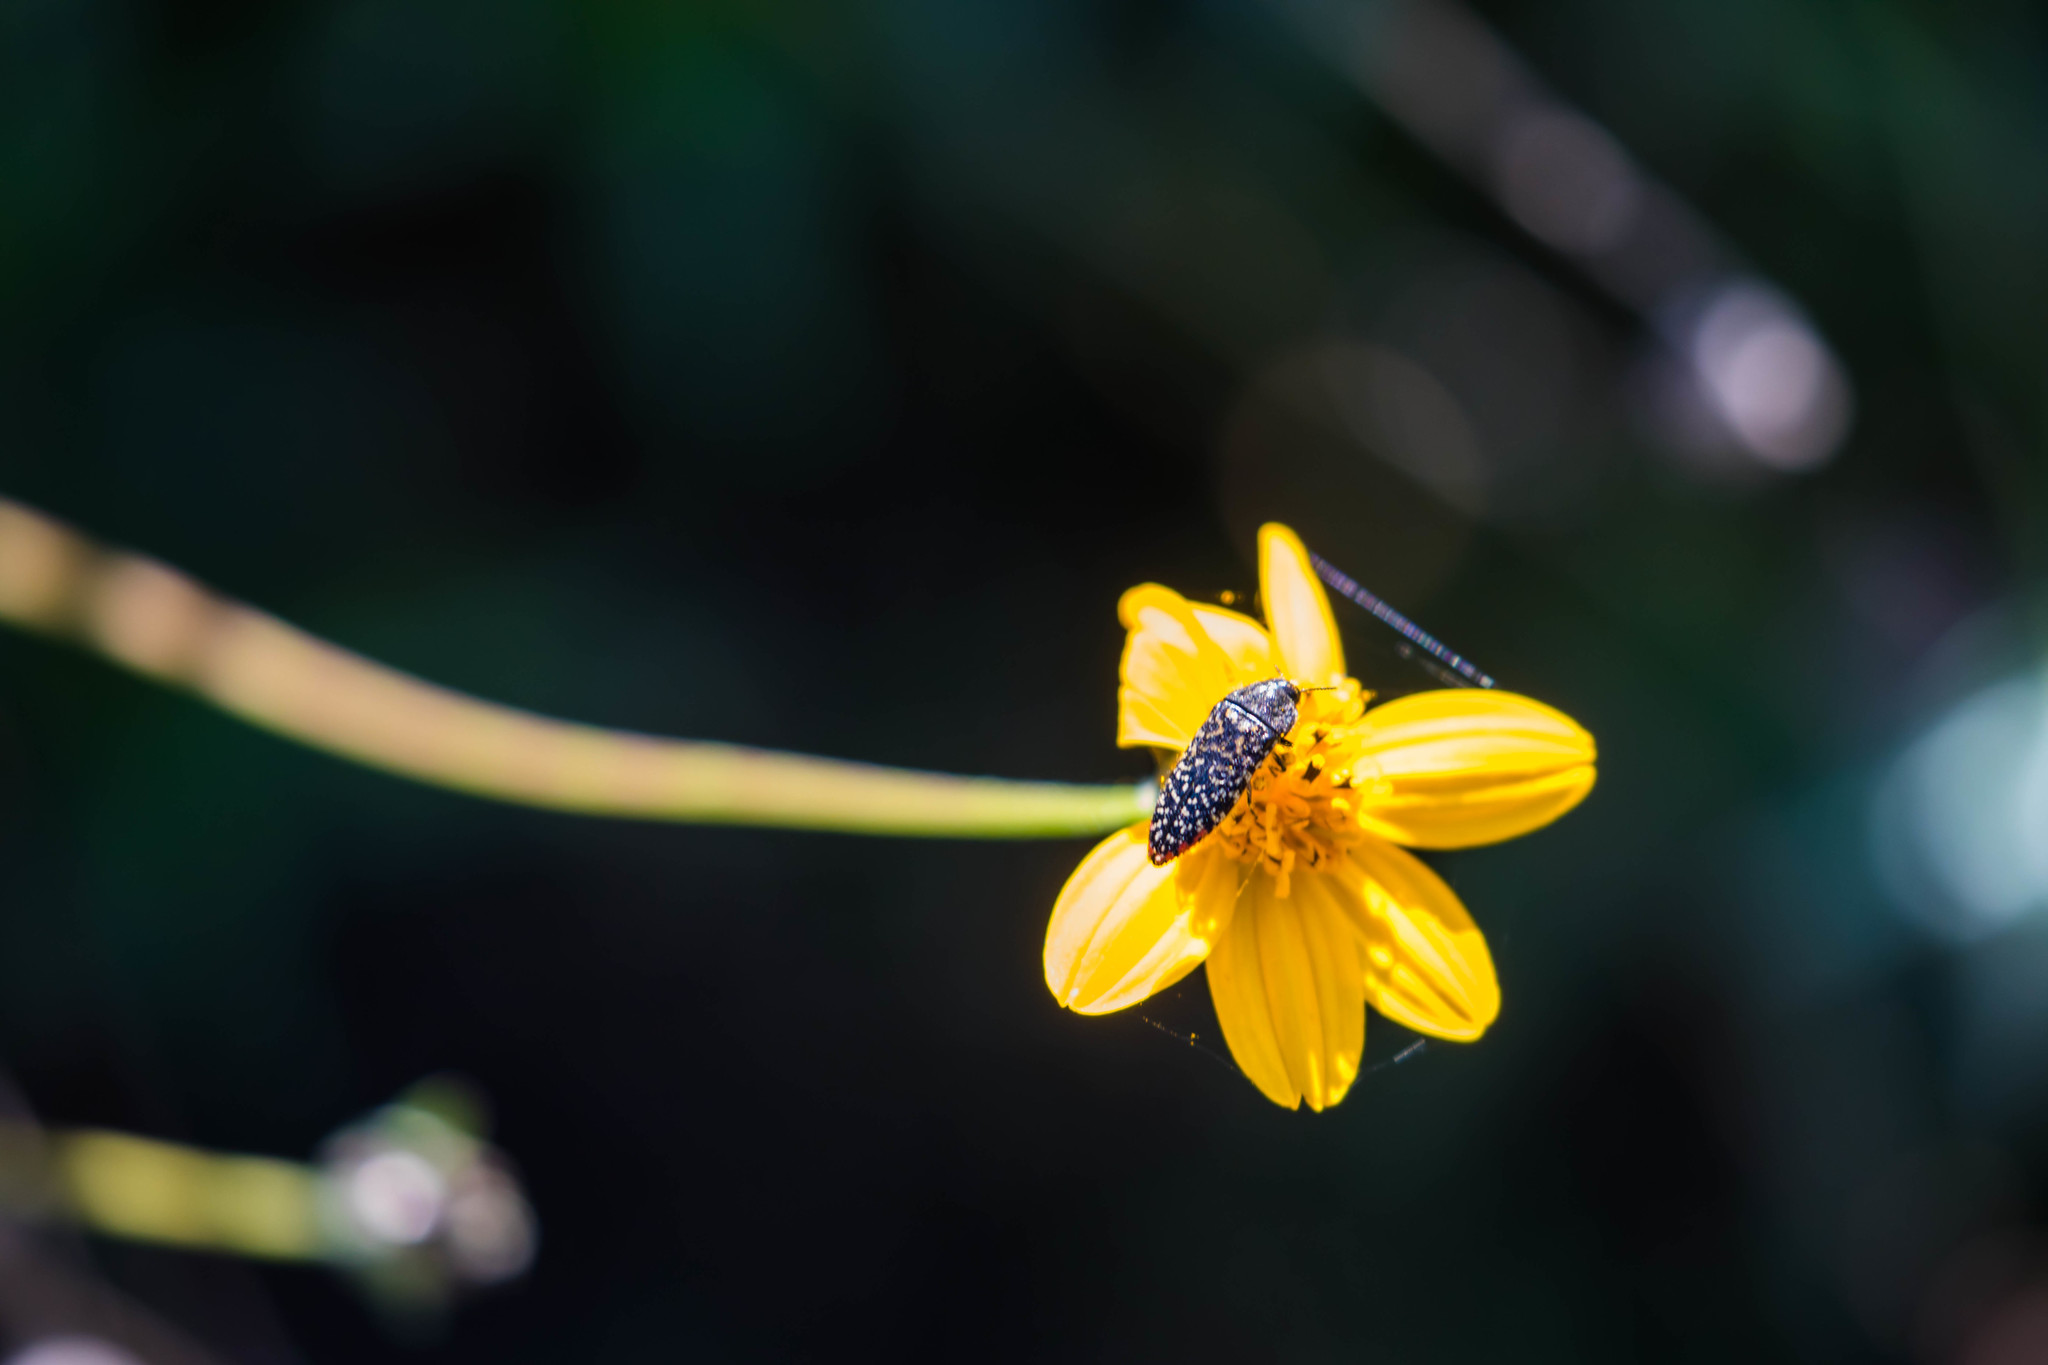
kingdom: Animalia
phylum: Arthropoda
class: Insecta
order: Coleoptera
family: Buprestidae
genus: Acmaeodera
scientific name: Acmaeodera haemorrhoa
